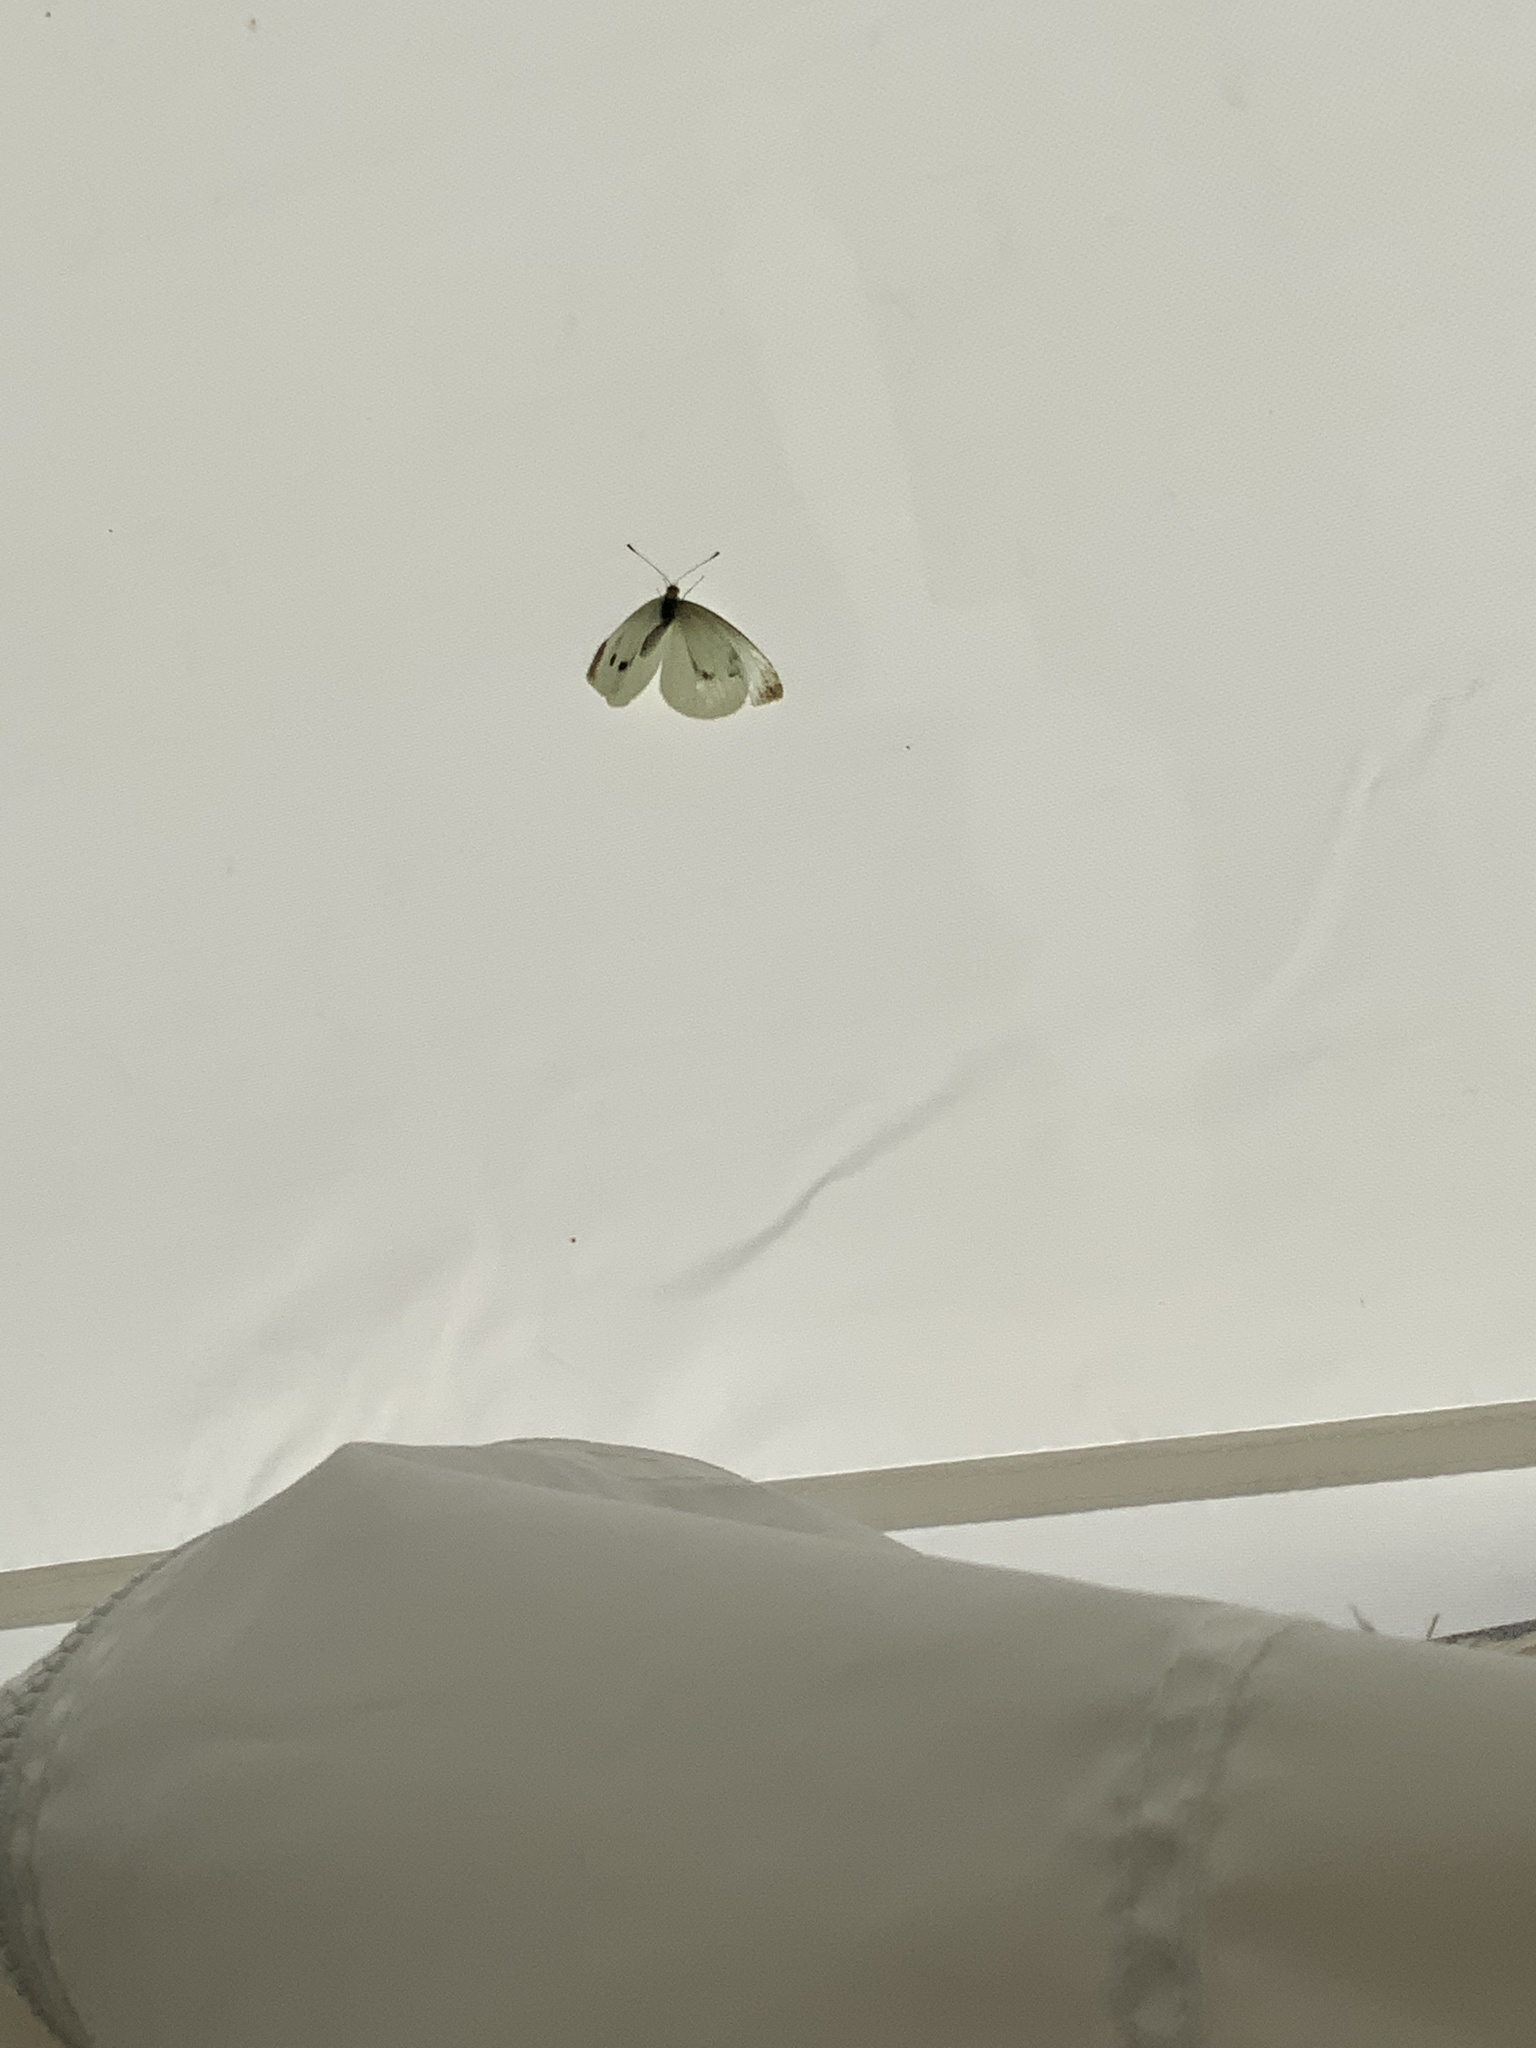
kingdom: Animalia
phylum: Arthropoda
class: Insecta
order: Lepidoptera
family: Pieridae
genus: Pieris
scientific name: Pieris rapae
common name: Small white
